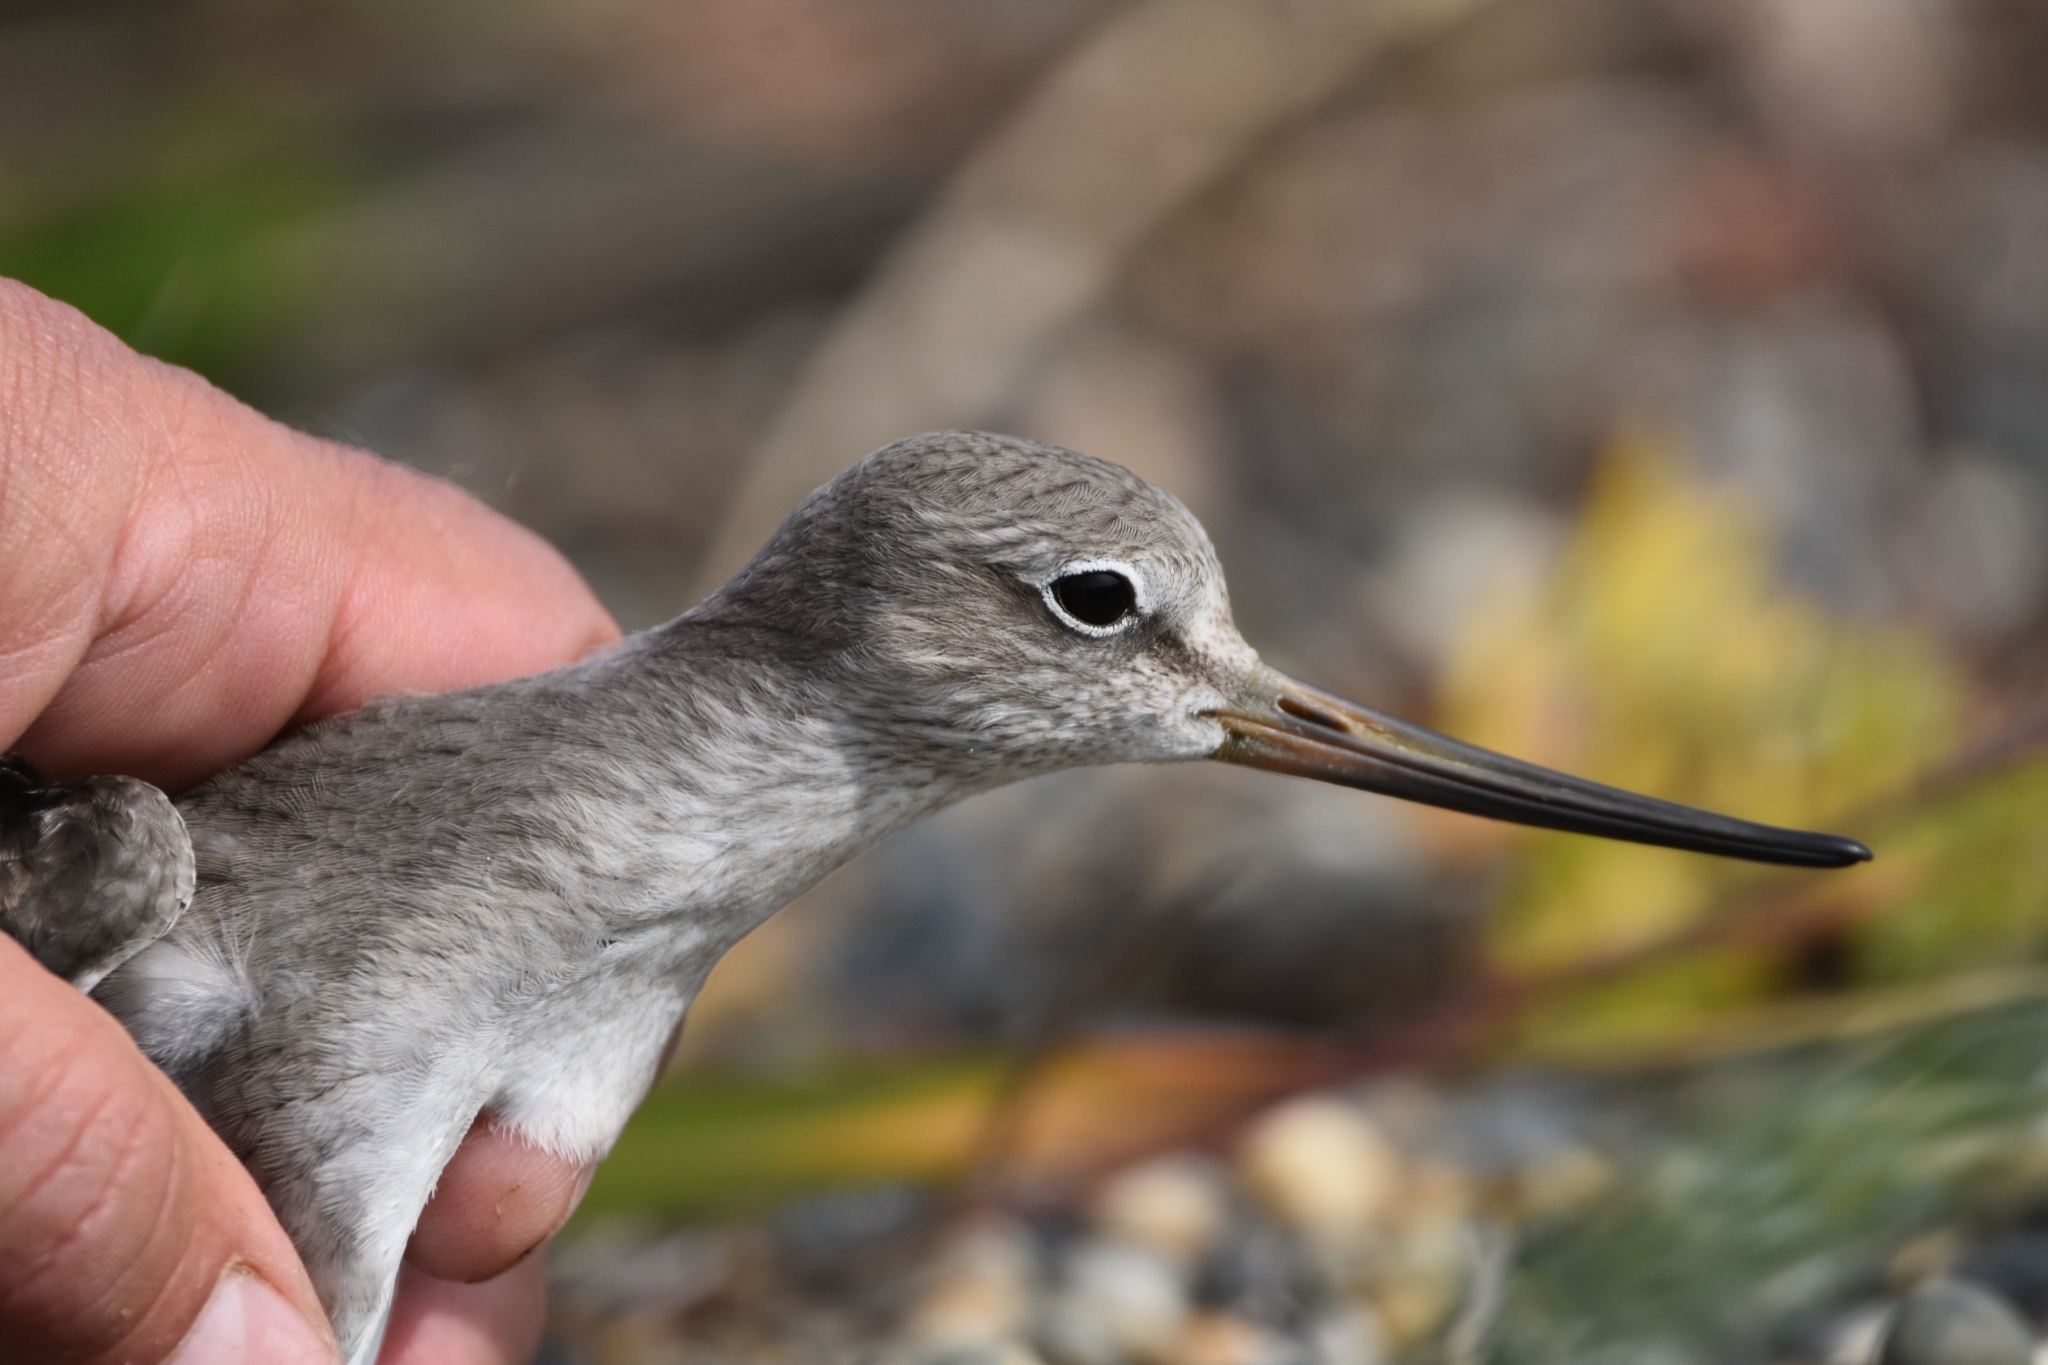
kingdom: Animalia
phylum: Chordata
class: Aves
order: Charadriiformes
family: Scolopacidae
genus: Xenus
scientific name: Xenus cinereus
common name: Terek sandpiper
